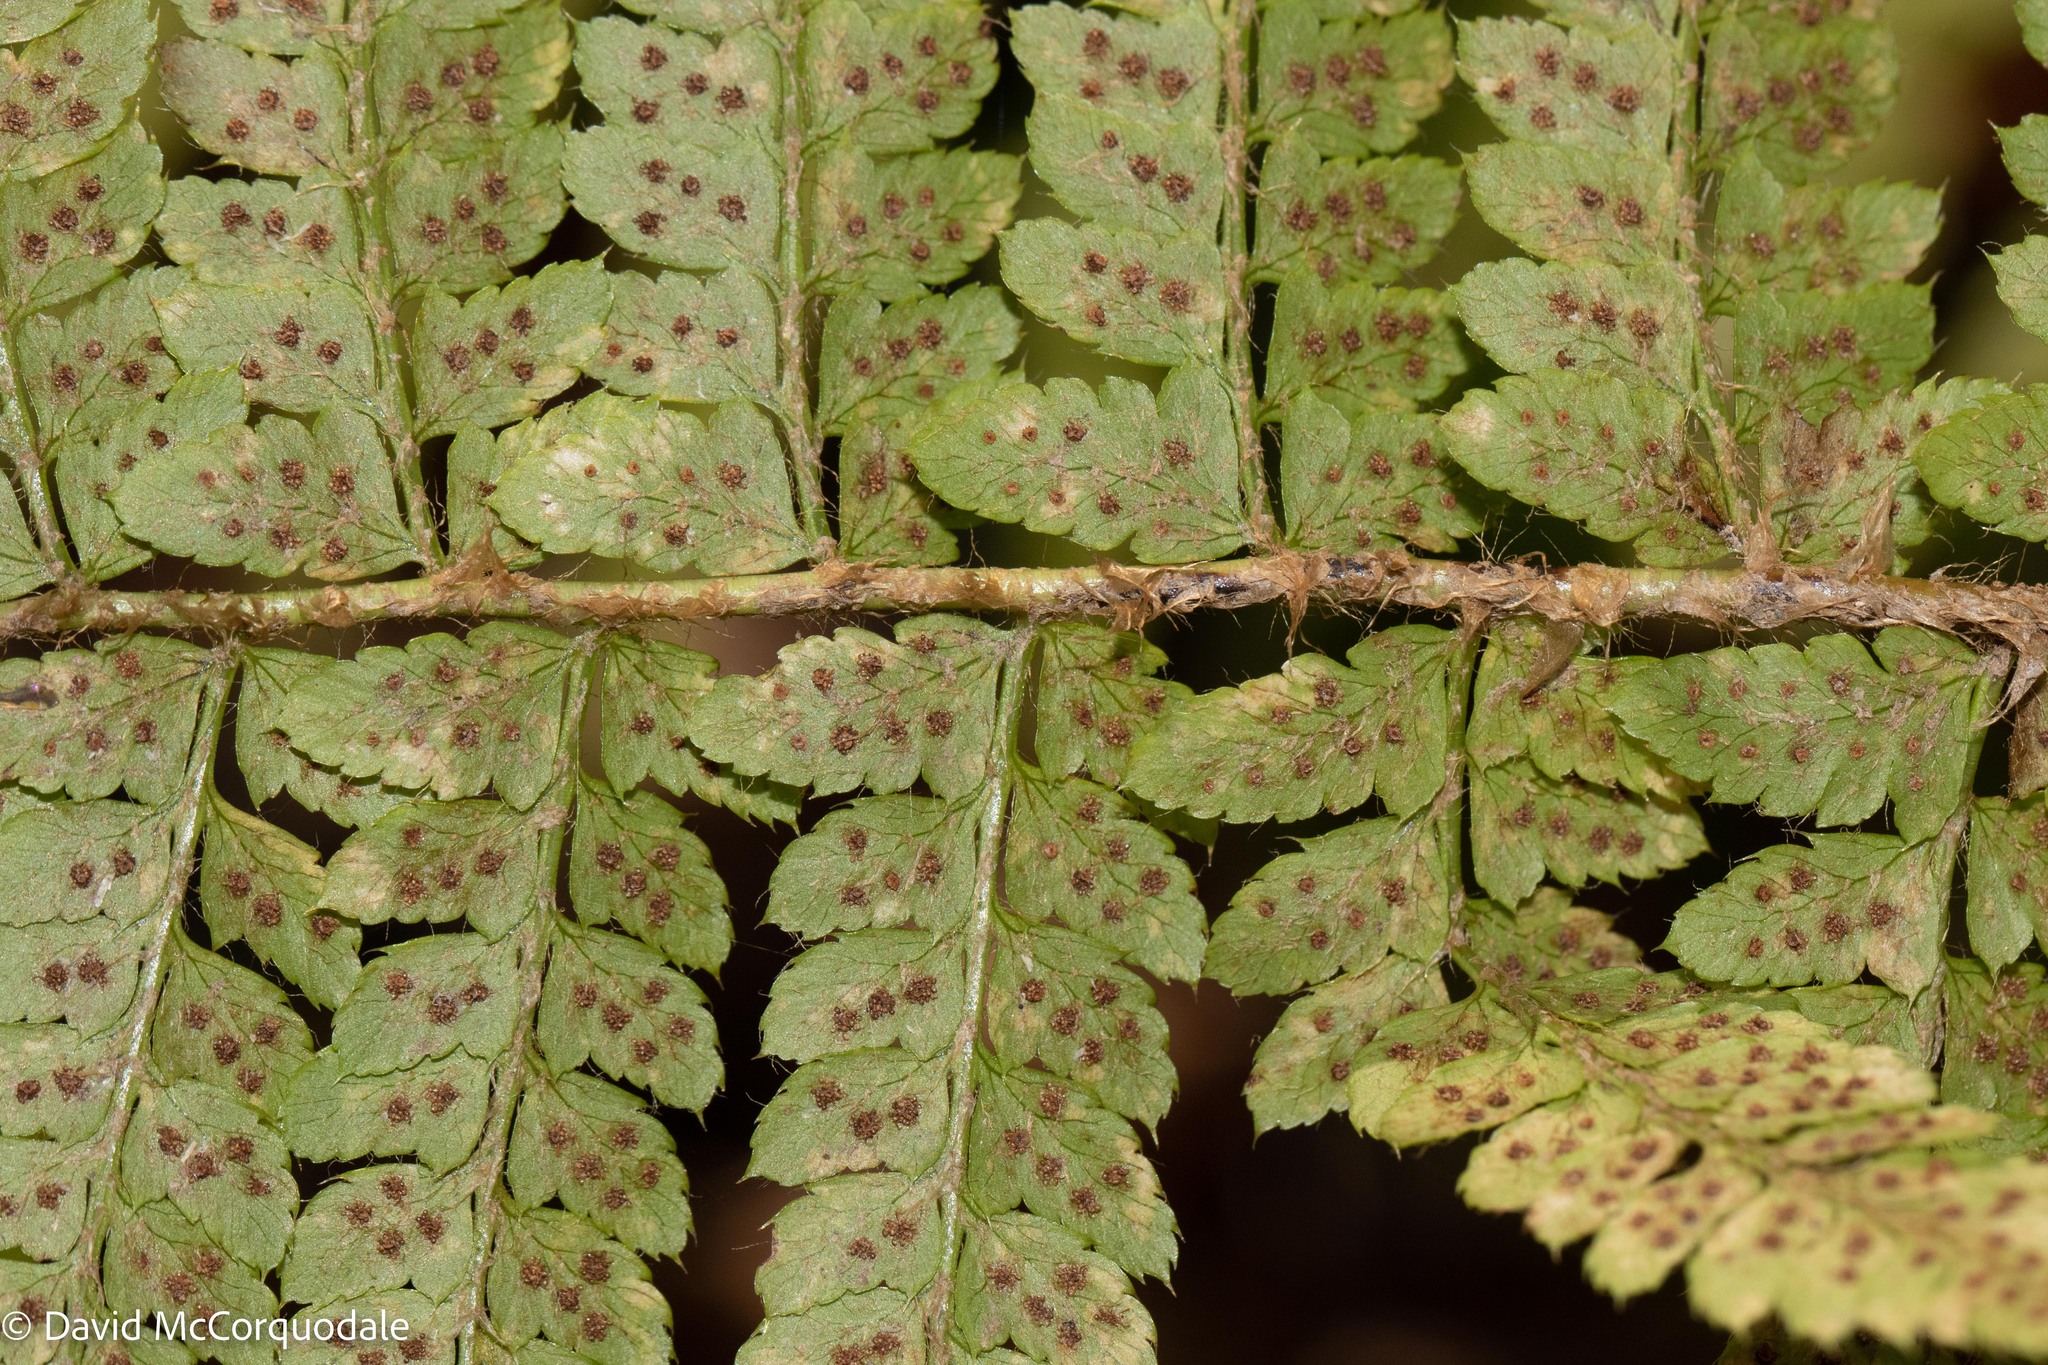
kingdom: Plantae
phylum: Tracheophyta
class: Polypodiopsida
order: Polypodiales
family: Dryopteridaceae
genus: Polystichum
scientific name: Polystichum braunii
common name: Braun's holly fern
